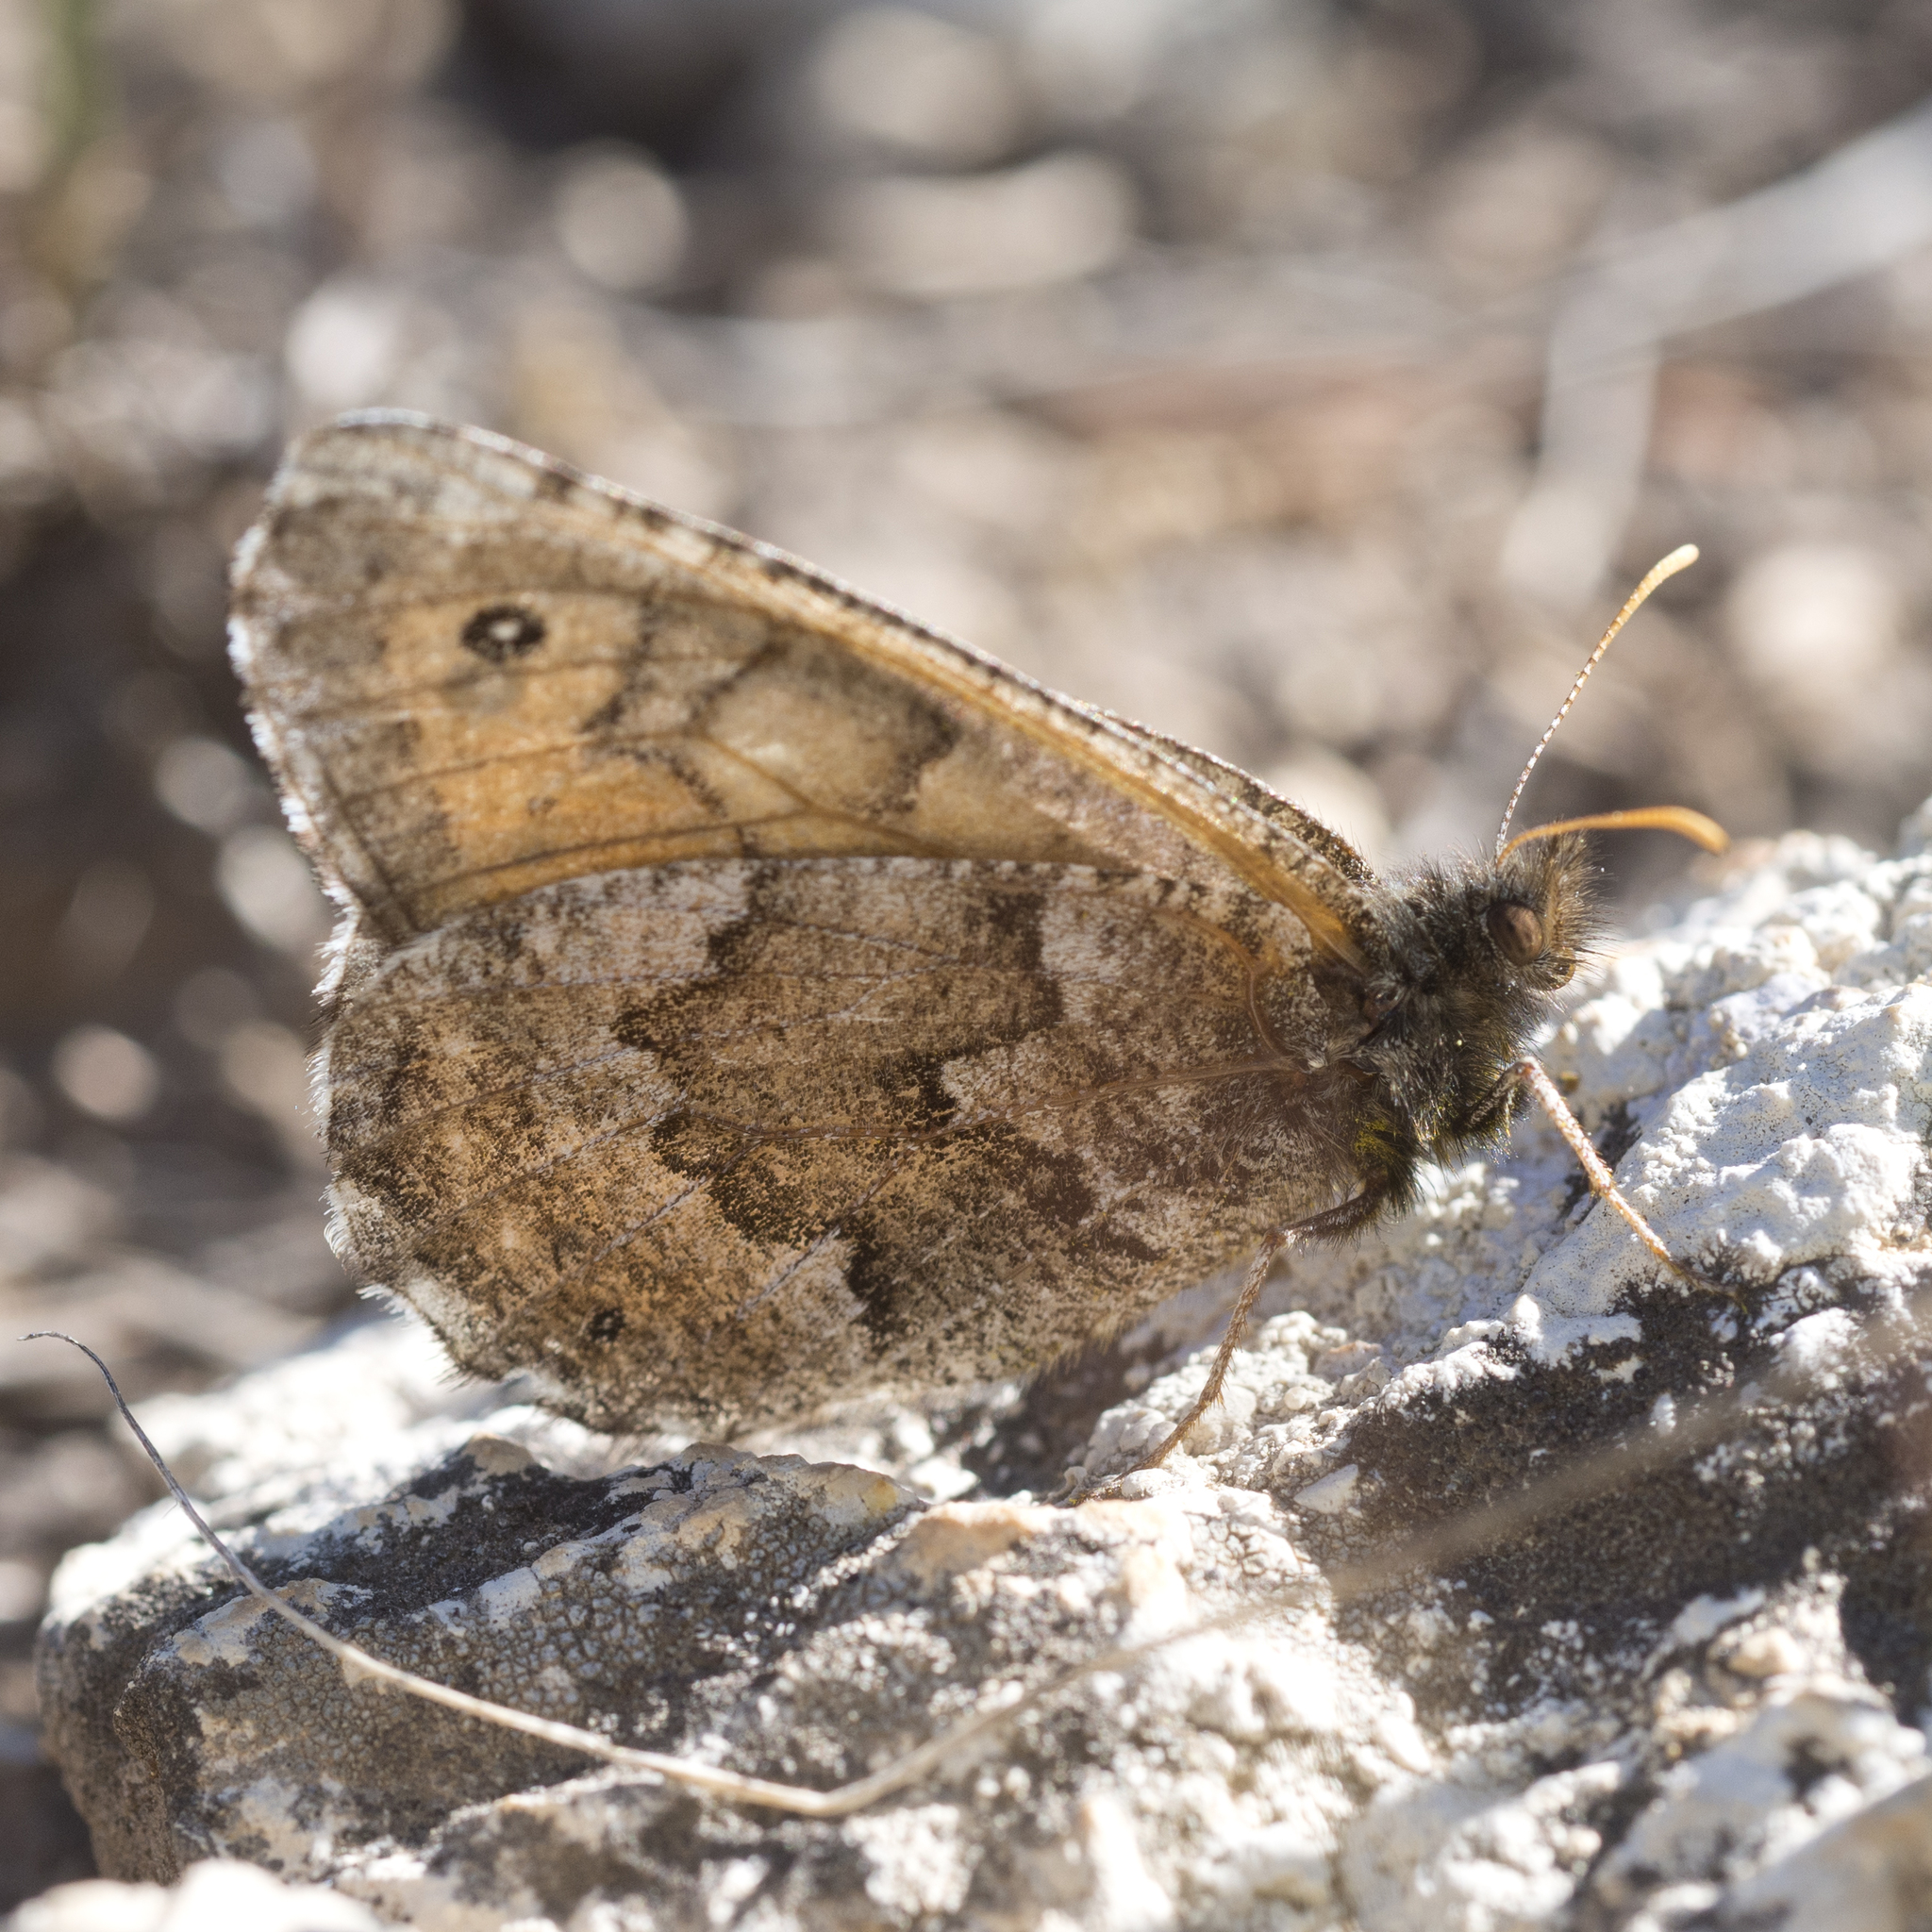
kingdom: Animalia
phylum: Arthropoda
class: Insecta
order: Lepidoptera
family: Nymphalidae
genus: Oeneis
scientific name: Oeneis chryxus
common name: Chryxus arctic
